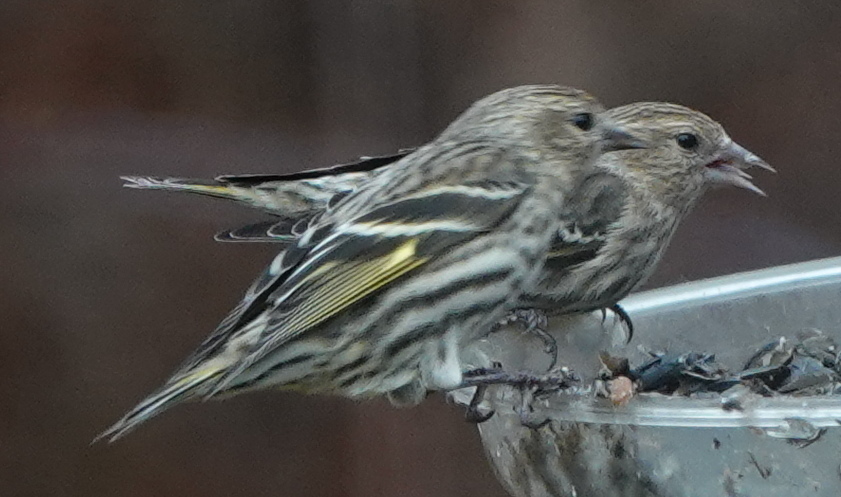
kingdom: Animalia
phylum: Chordata
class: Aves
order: Passeriformes
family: Fringillidae
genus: Spinus
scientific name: Spinus pinus
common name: Pine siskin
